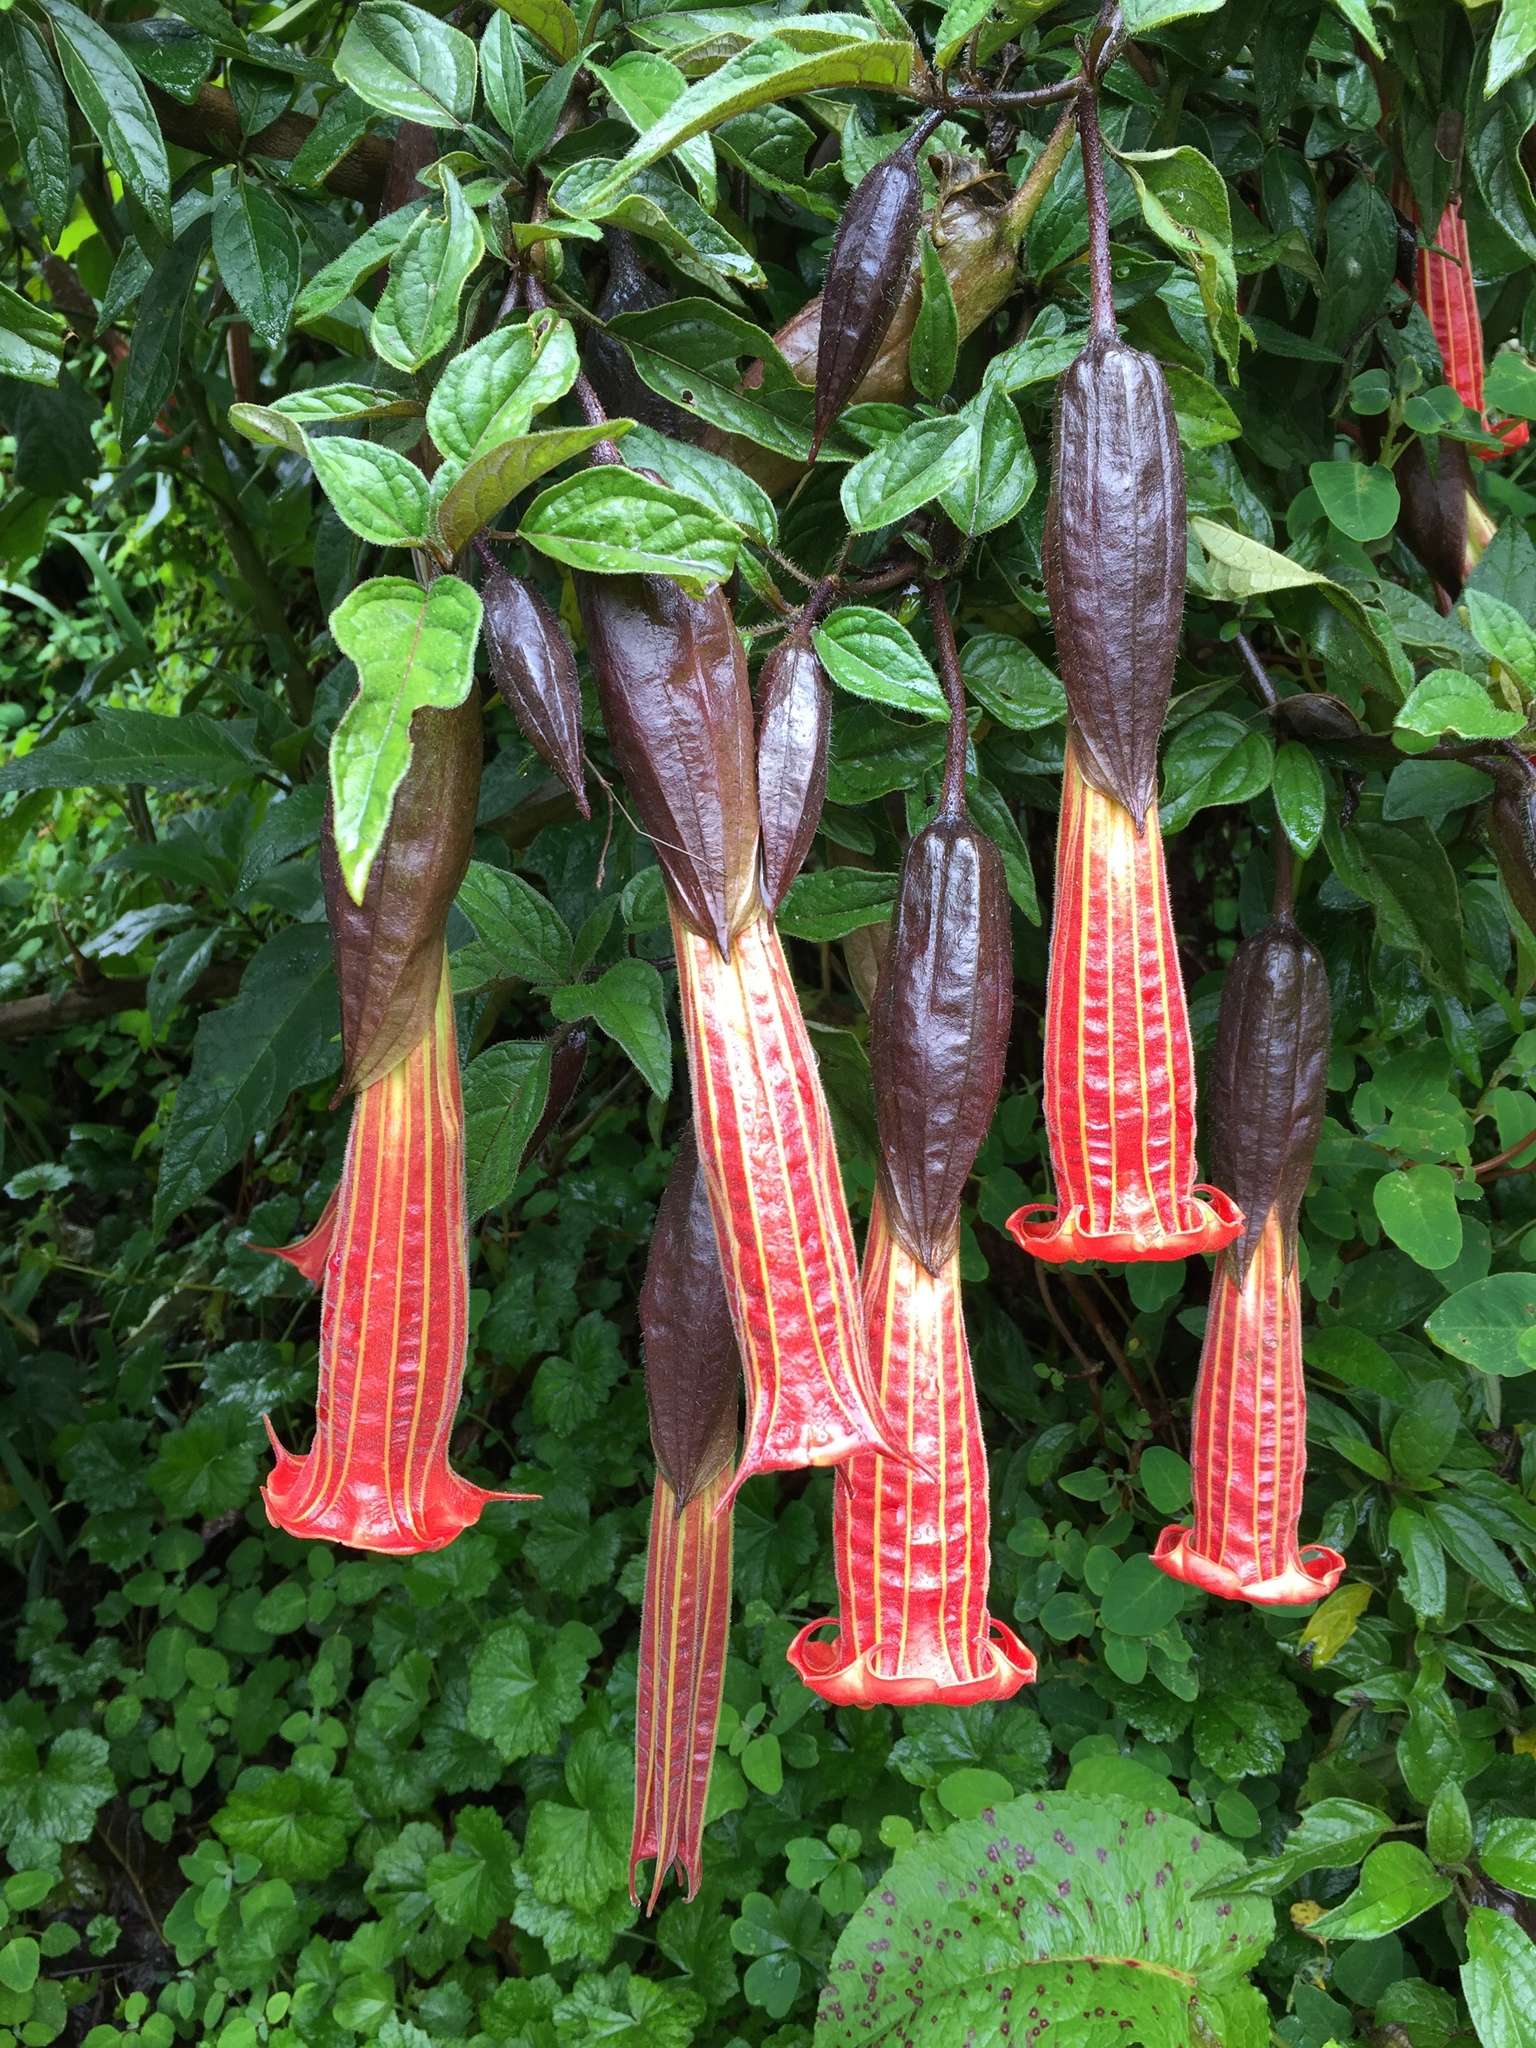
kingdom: Plantae
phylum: Tracheophyta
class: Magnoliopsida
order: Solanales
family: Solanaceae
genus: Brugmansia
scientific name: Brugmansia sanguinea
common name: Red floripontio
